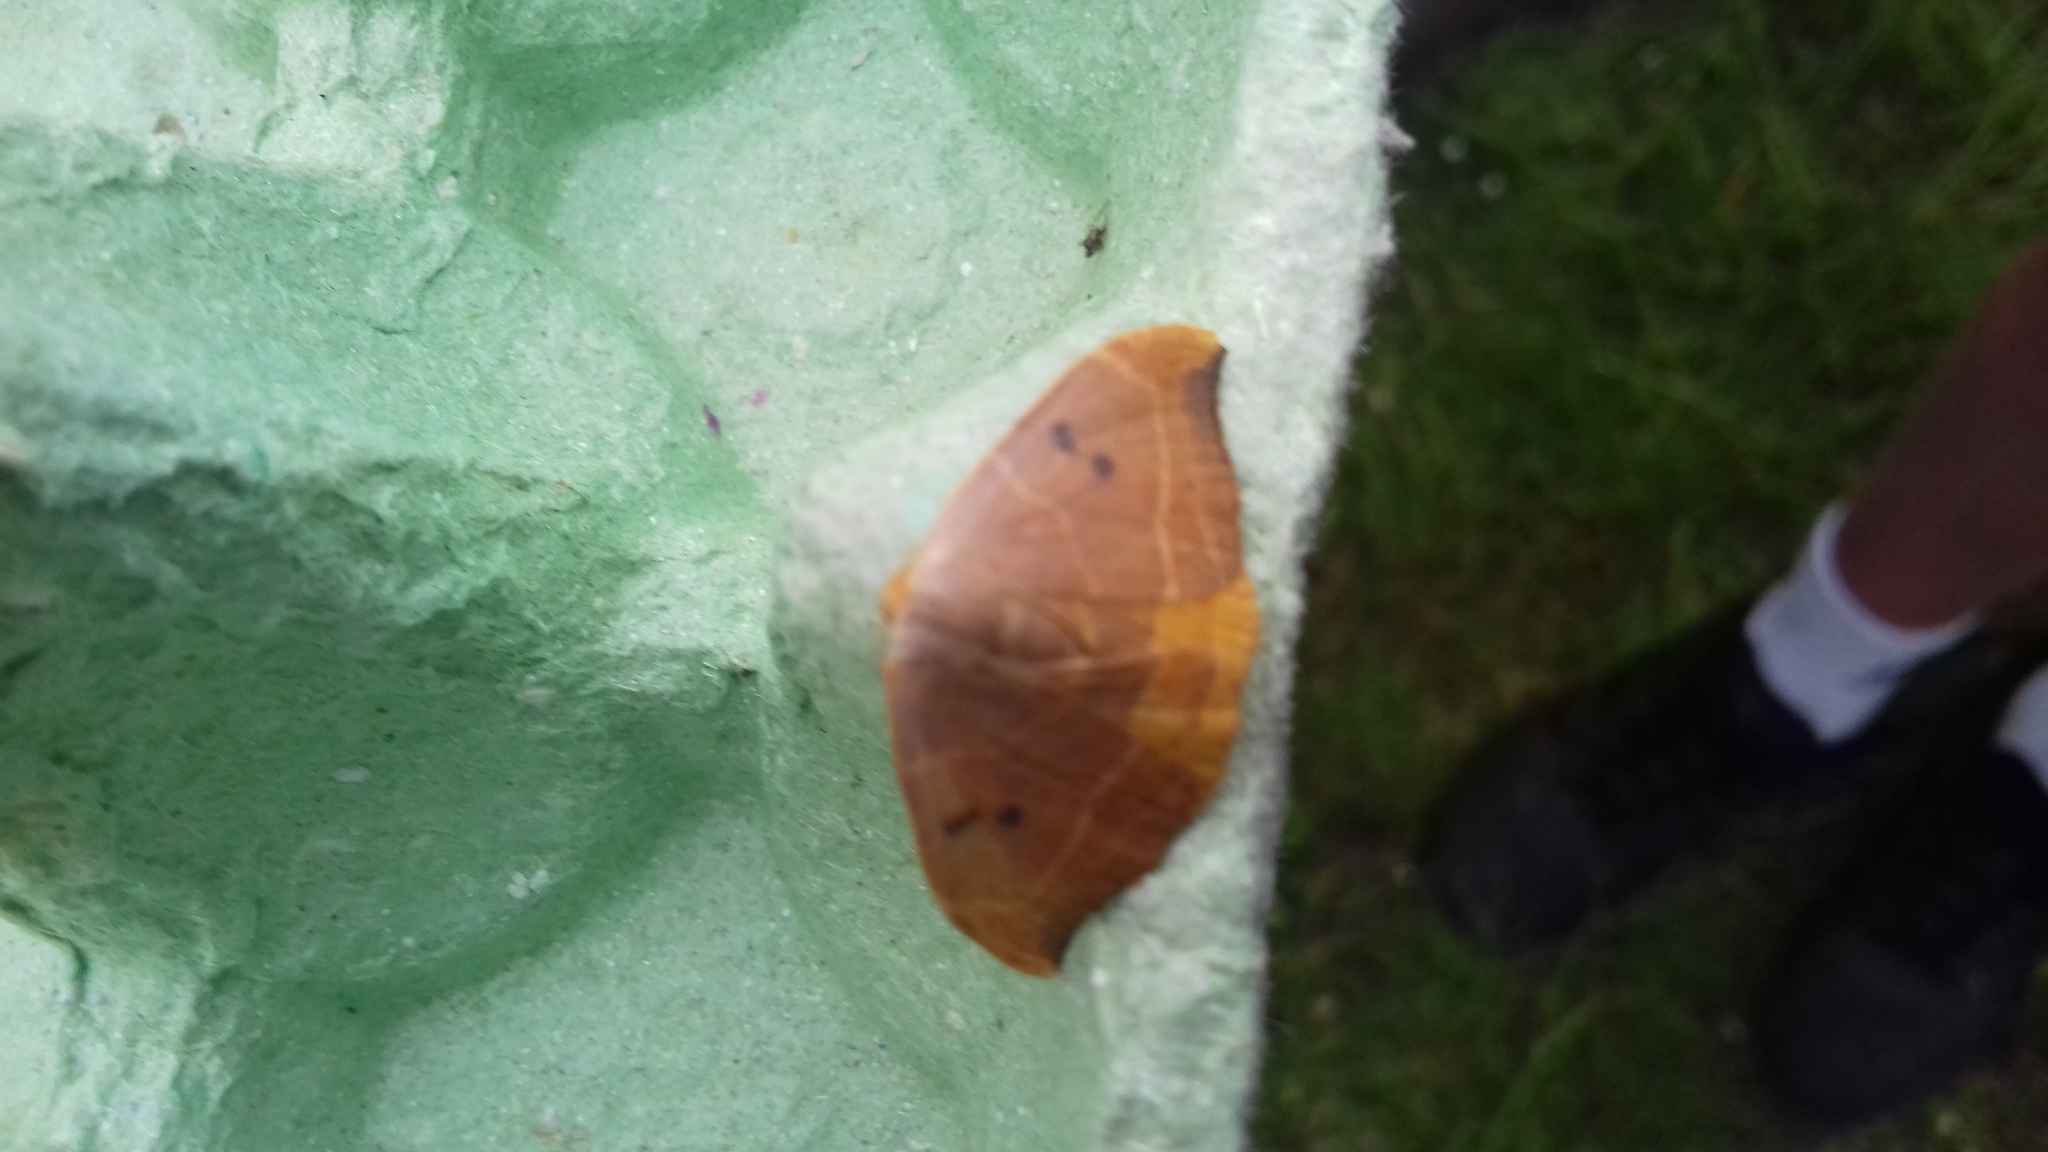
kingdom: Animalia
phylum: Arthropoda
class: Insecta
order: Lepidoptera
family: Drepanidae
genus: Watsonalla
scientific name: Watsonalla binaria
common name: Oak hook-tip
